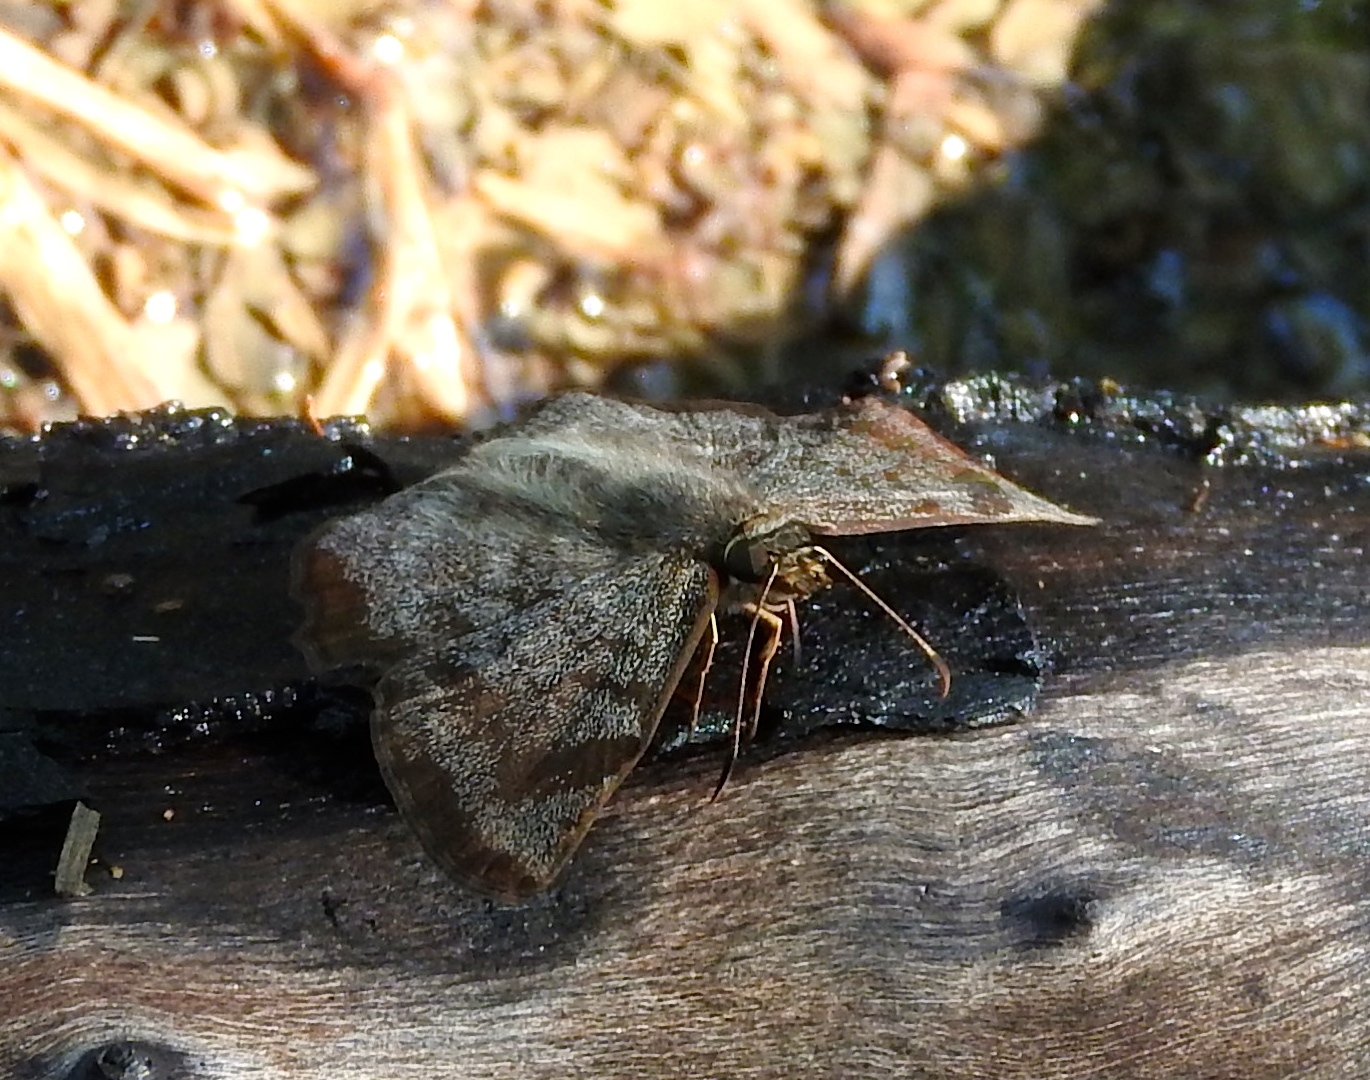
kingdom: Animalia
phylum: Arthropoda
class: Insecta
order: Lepidoptera
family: Hesperiidae
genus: Antigonus
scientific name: Antigonus erosus
